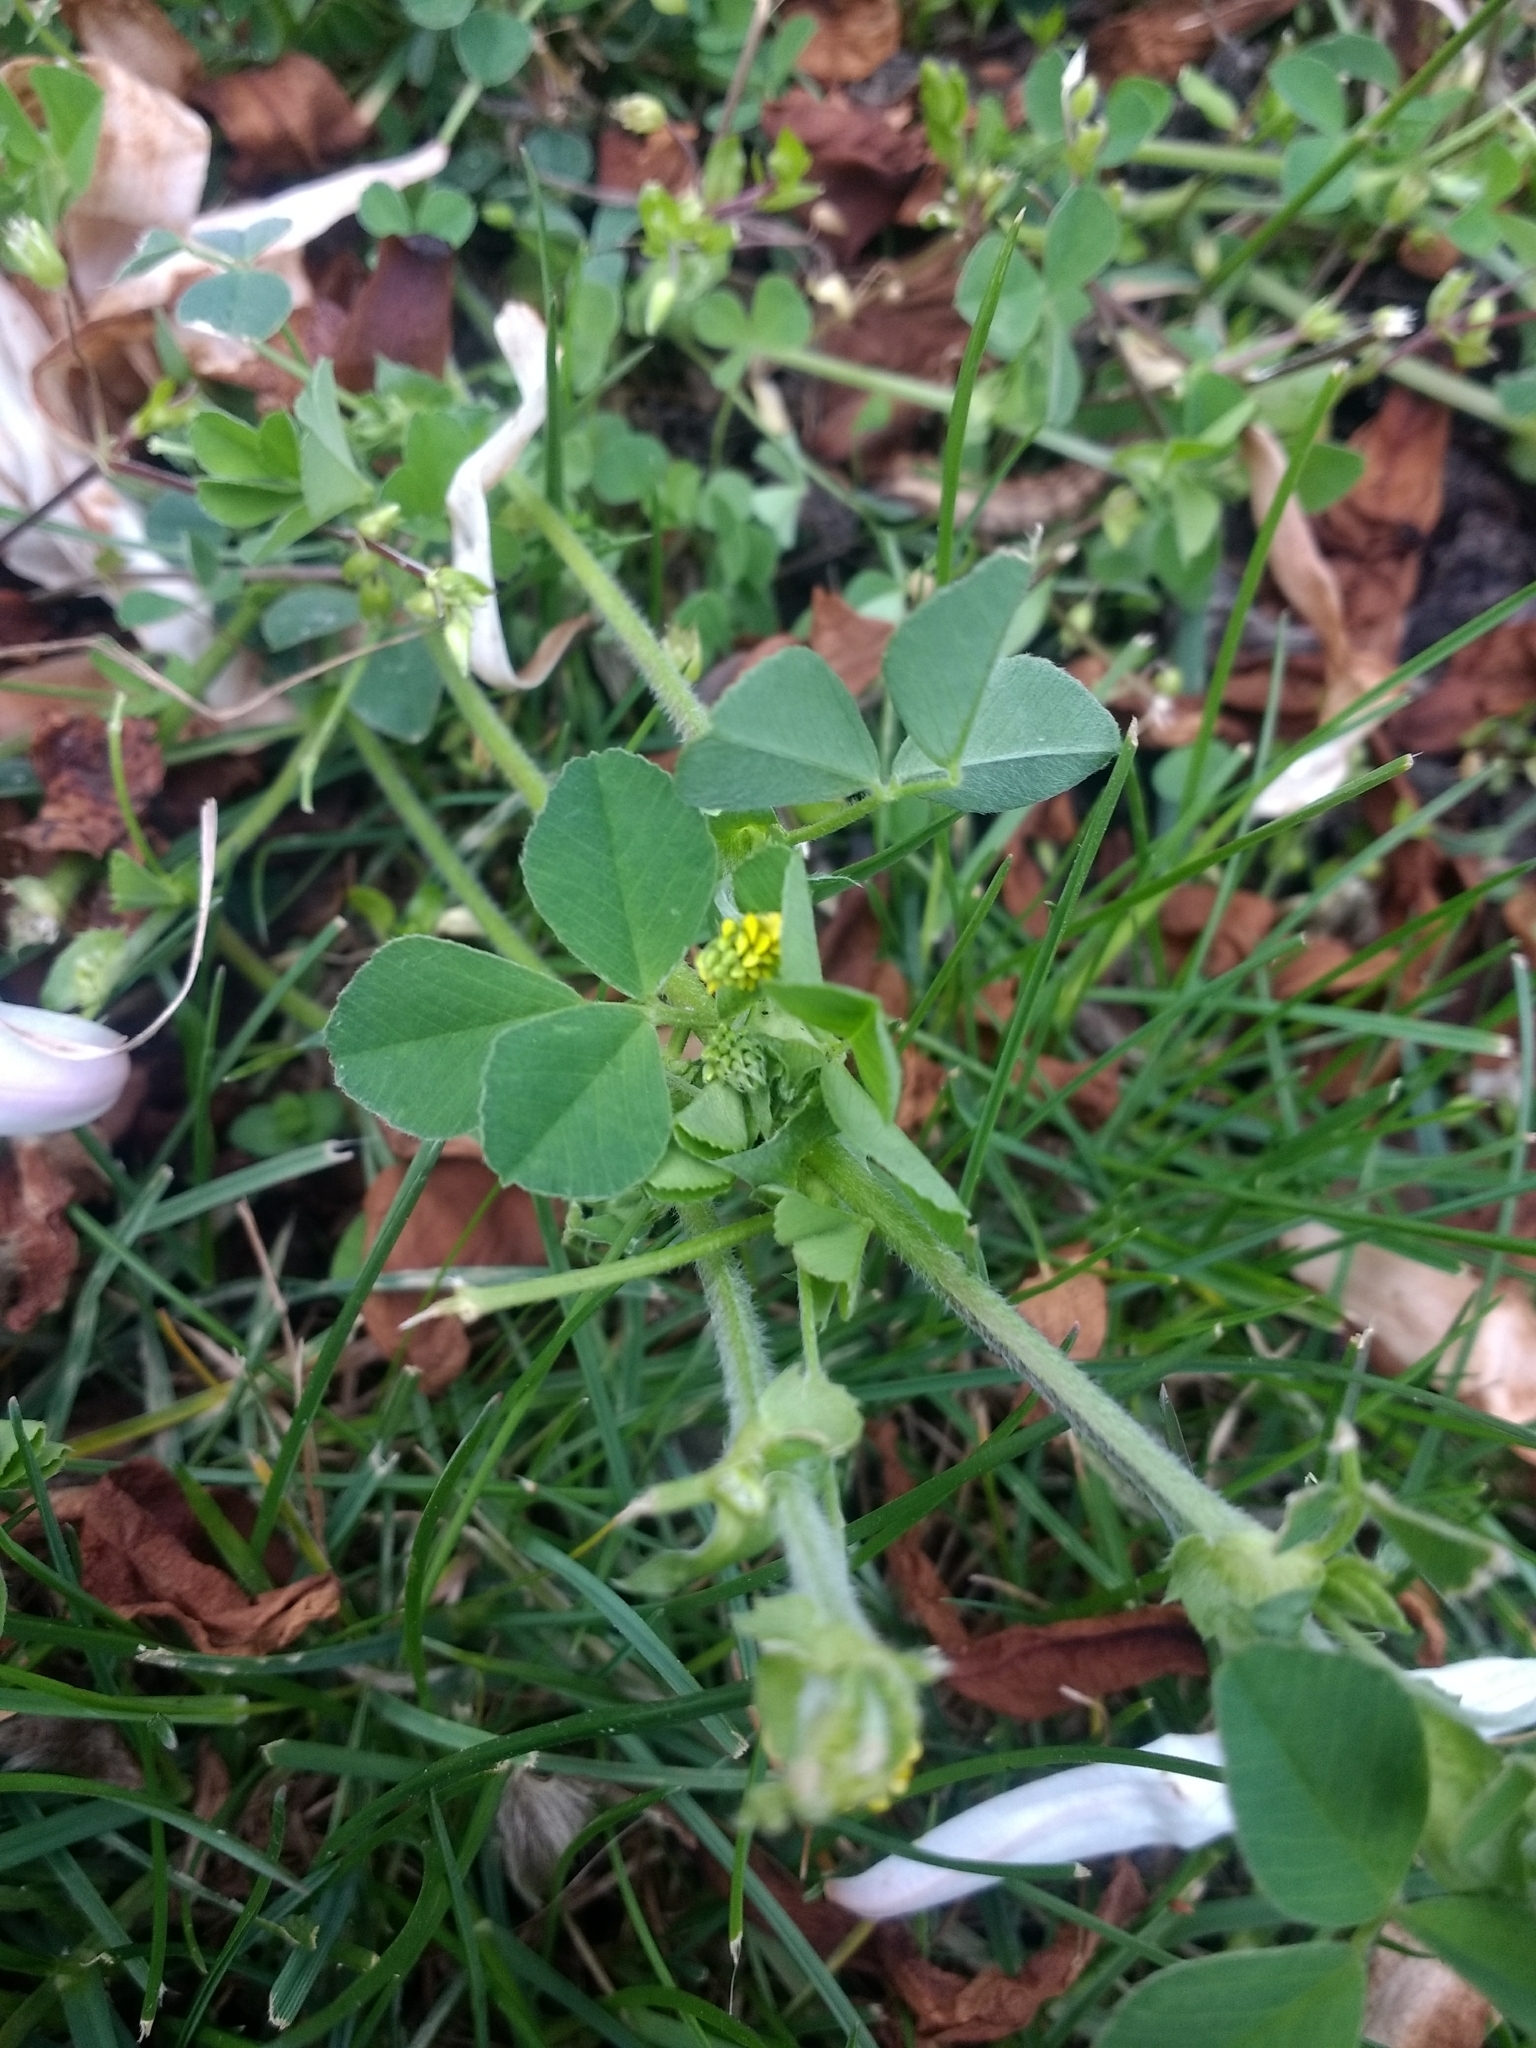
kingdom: Plantae
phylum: Tracheophyta
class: Magnoliopsida
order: Fabales
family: Fabaceae
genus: Medicago
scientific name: Medicago lupulina
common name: Black medick
